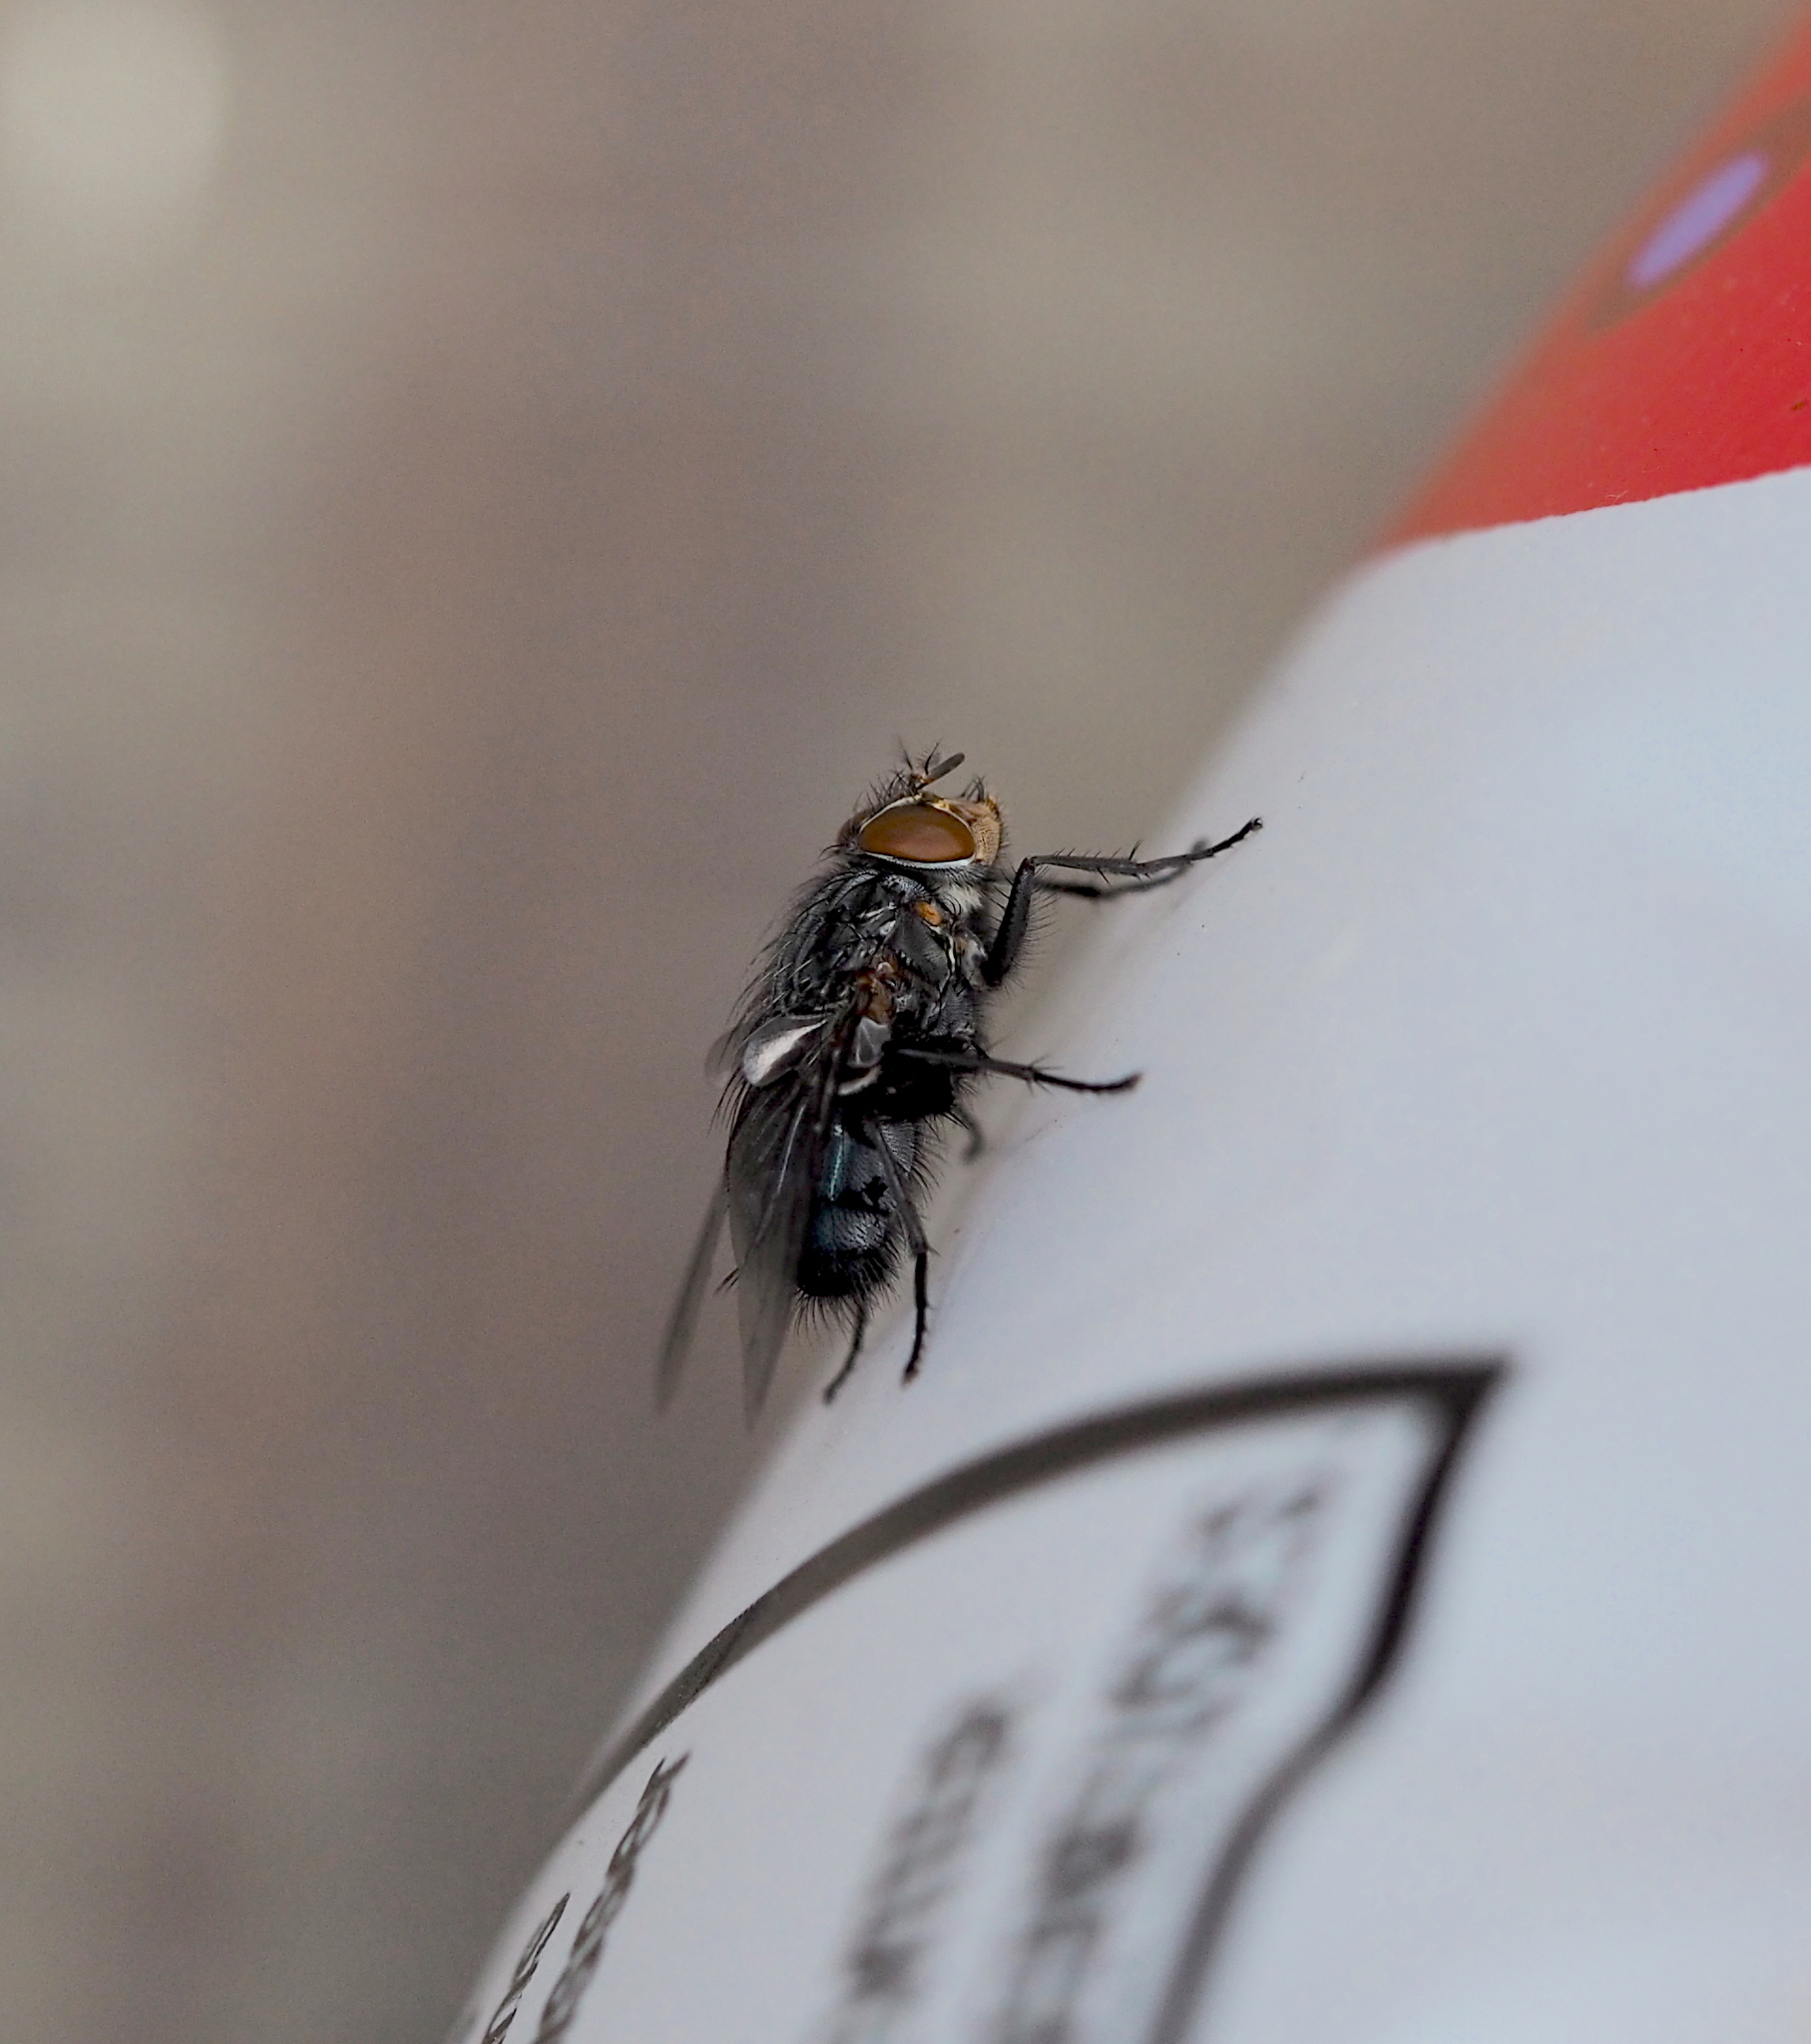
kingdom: Animalia
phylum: Arthropoda
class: Insecta
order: Diptera
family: Calliphoridae
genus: Calliphora
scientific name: Calliphora vicina
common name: Common blow flie
